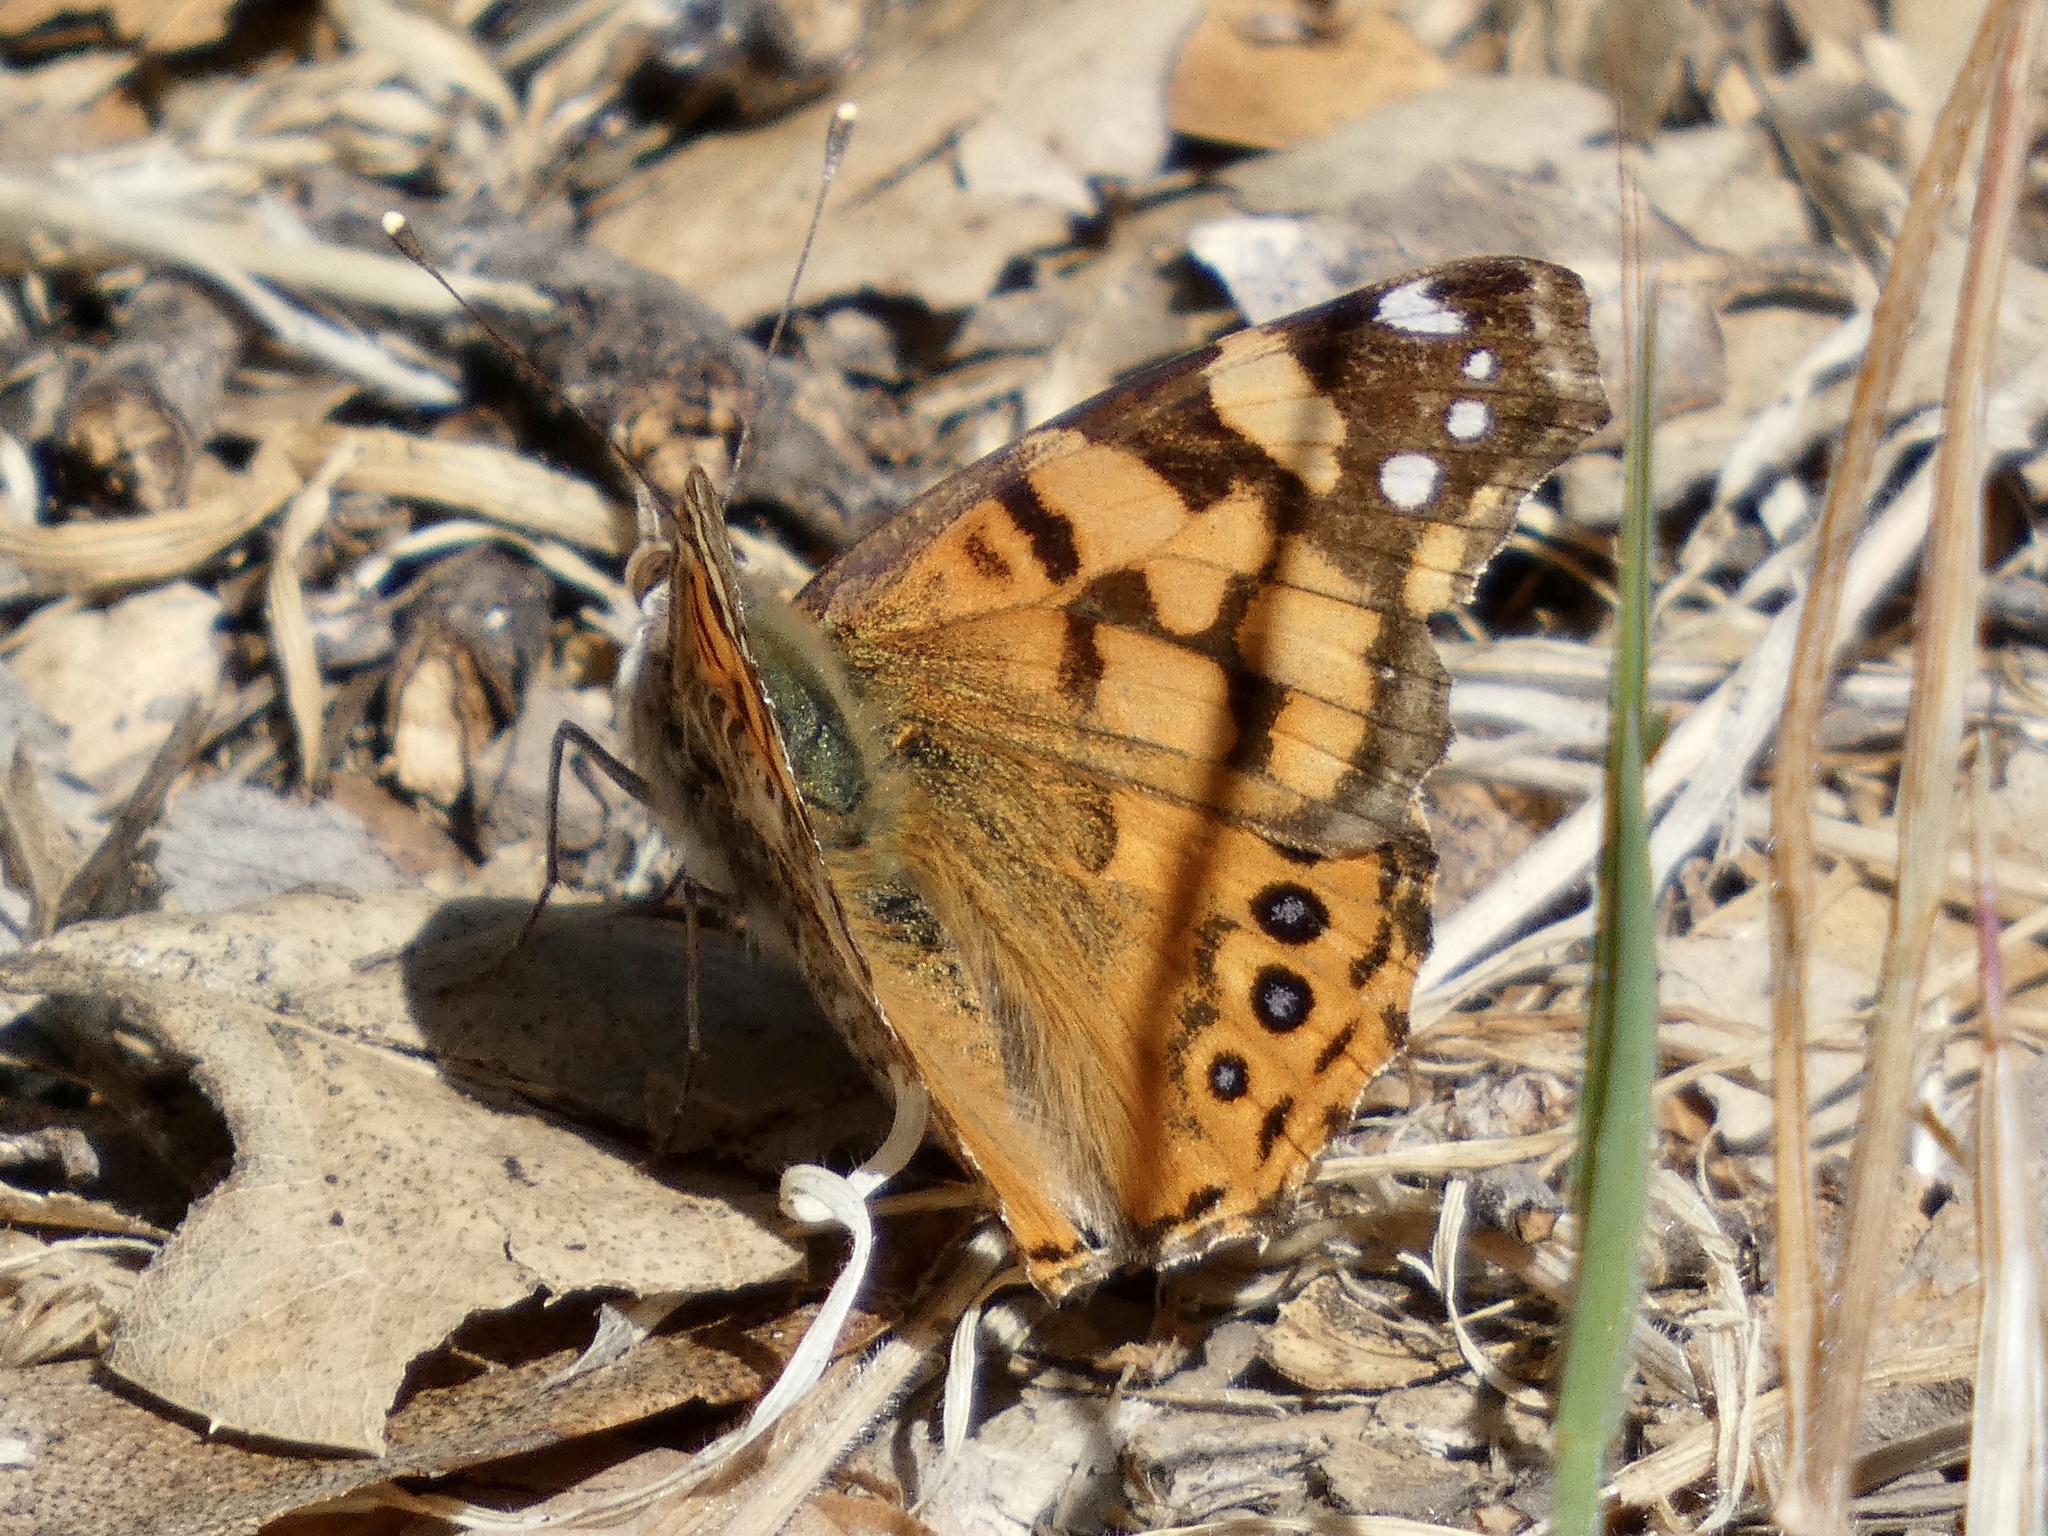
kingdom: Animalia
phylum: Arthropoda
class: Insecta
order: Lepidoptera
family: Nymphalidae
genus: Vanessa
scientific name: Vanessa annabella
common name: West coast lady
